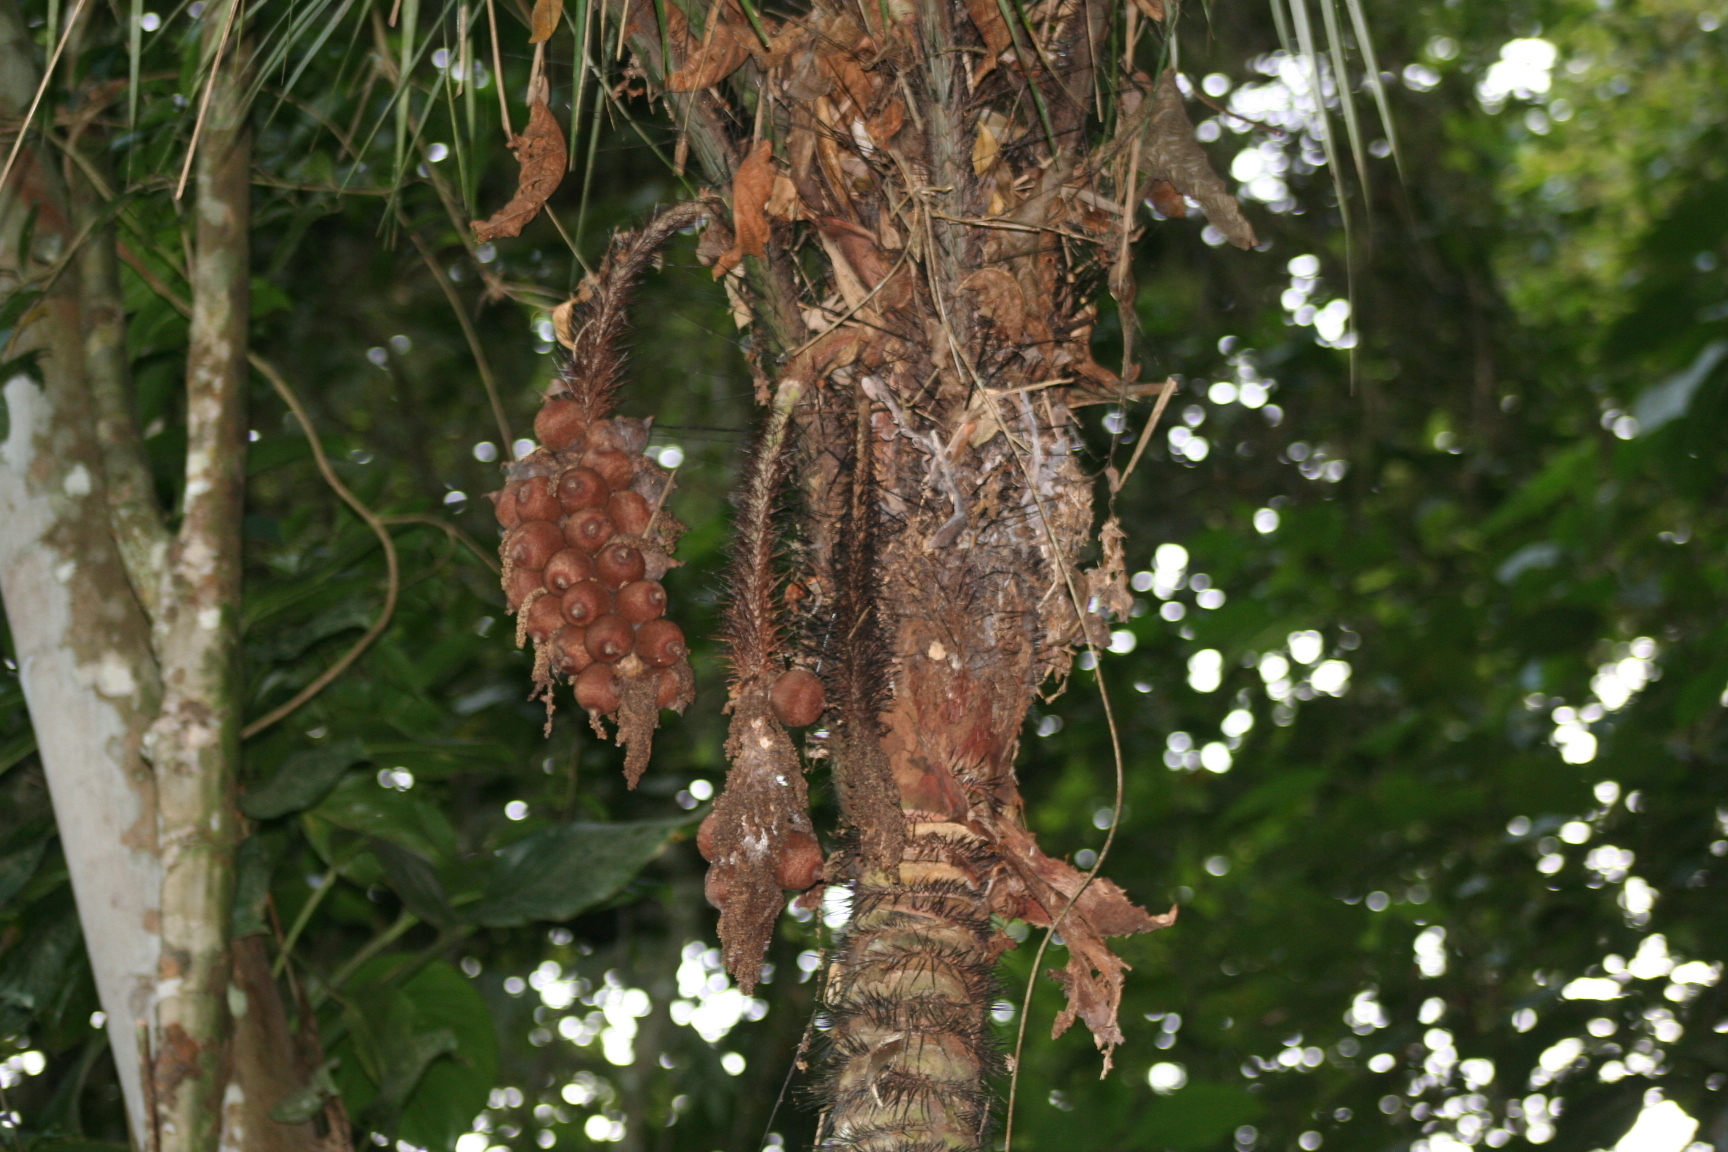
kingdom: Plantae
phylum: Tracheophyta
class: Liliopsida
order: Arecales
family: Arecaceae
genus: Astrocaryum
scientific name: Astrocaryum aculeatissimum
